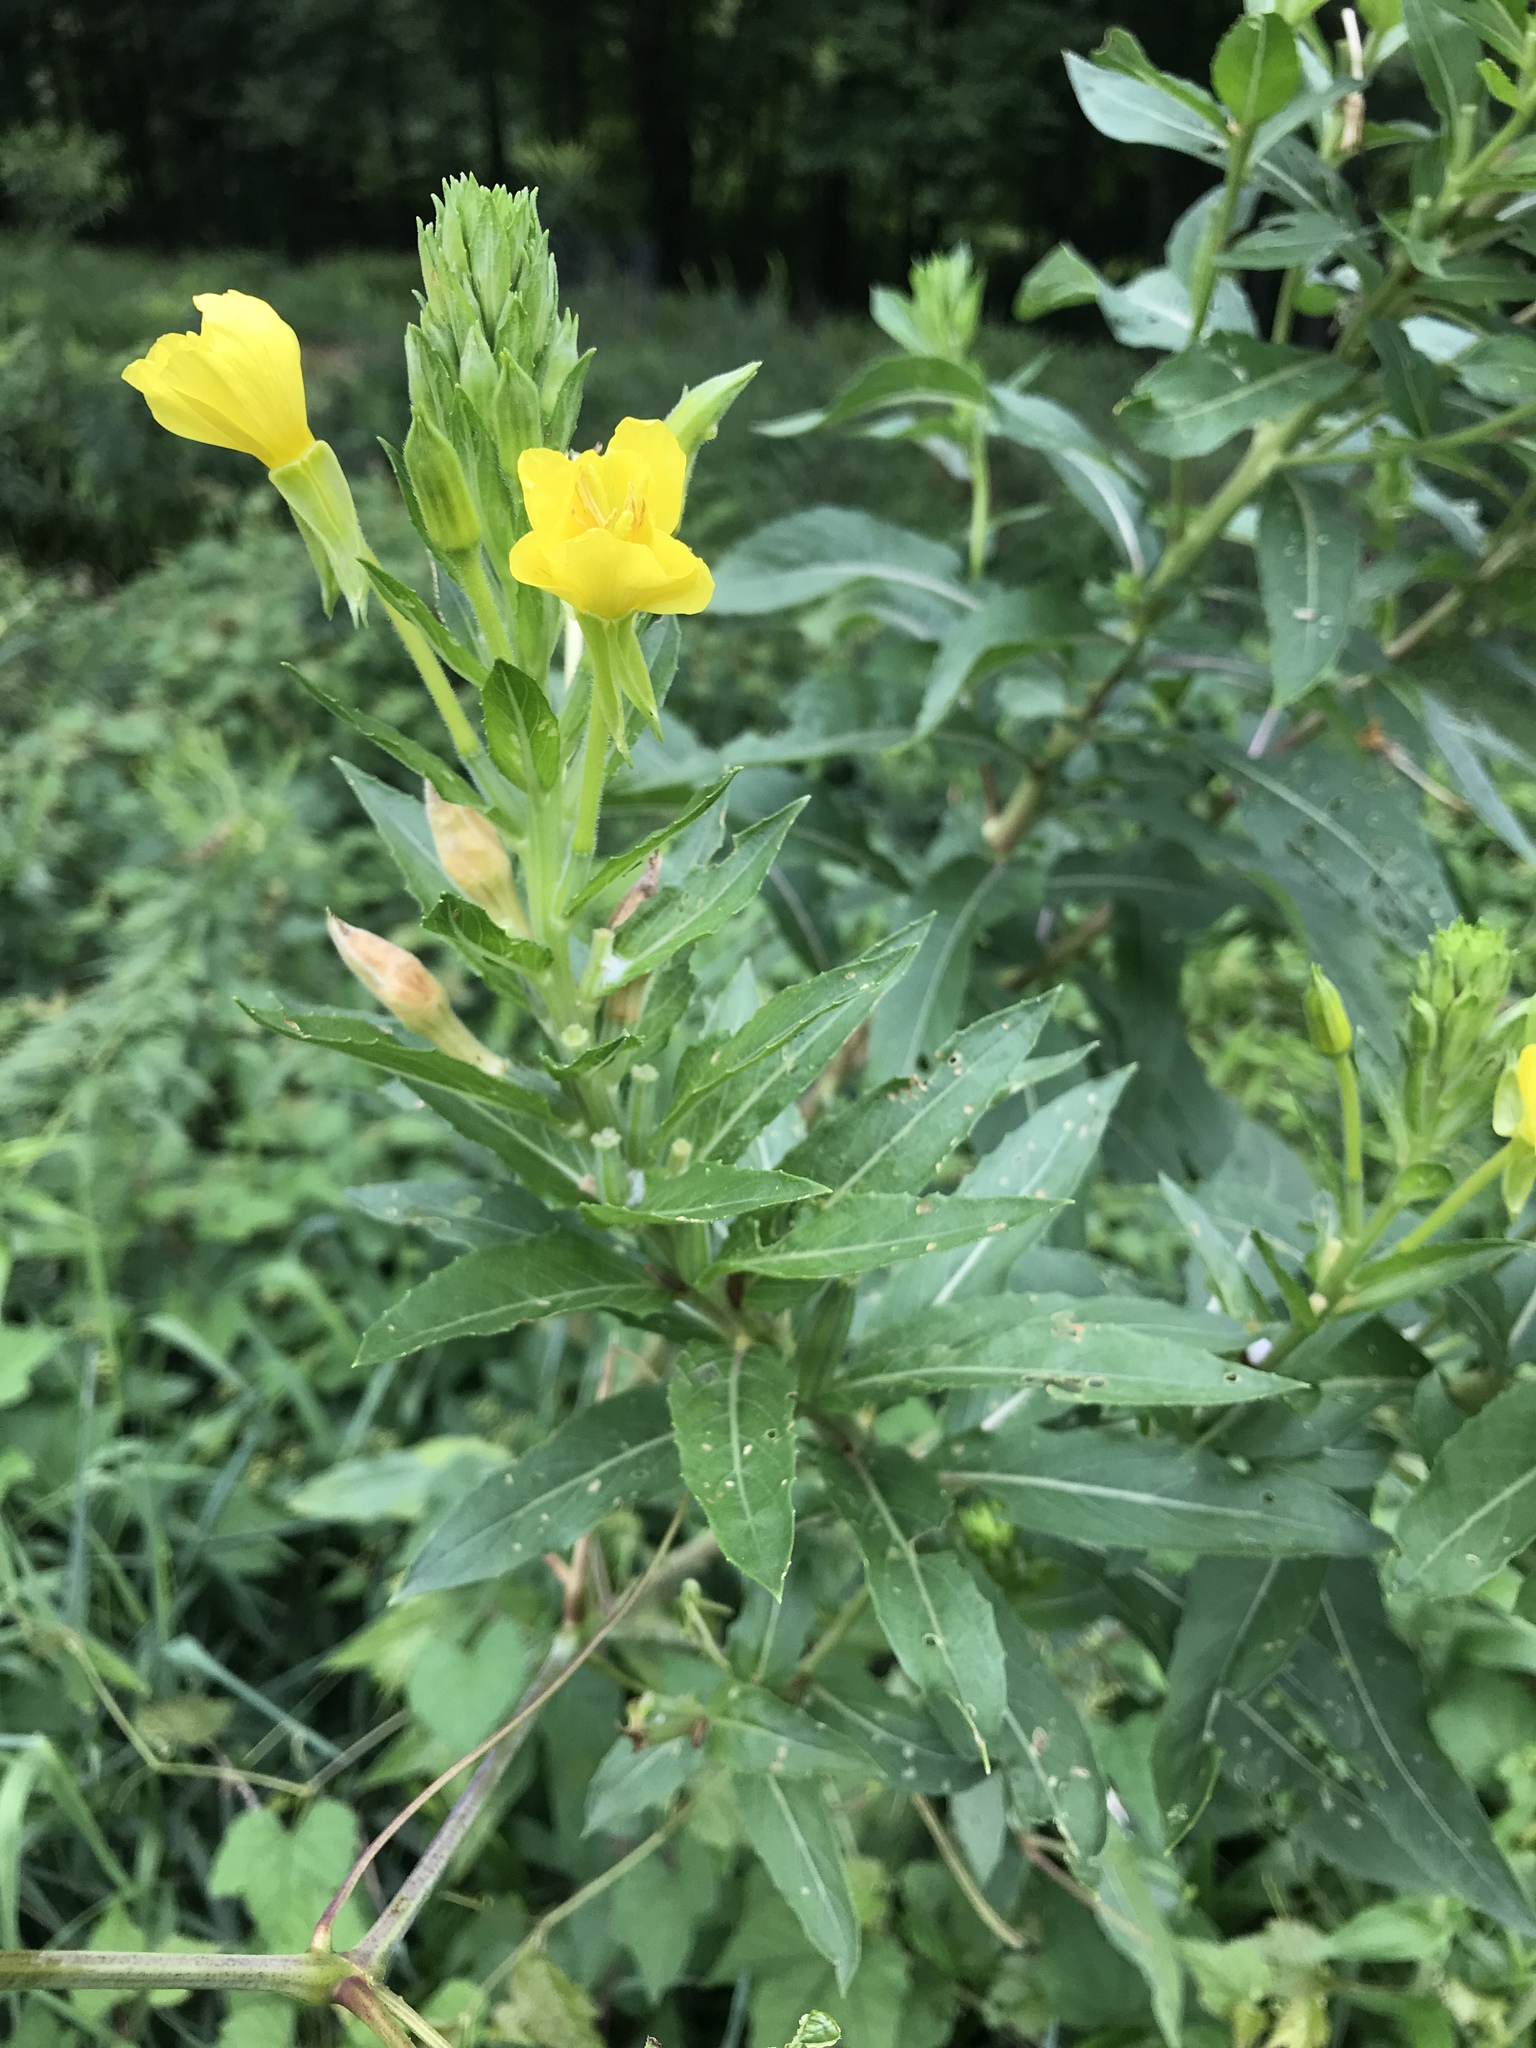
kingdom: Plantae
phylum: Tracheophyta
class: Magnoliopsida
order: Myrtales
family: Onagraceae
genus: Oenothera
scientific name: Oenothera biennis
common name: Common evening-primrose
